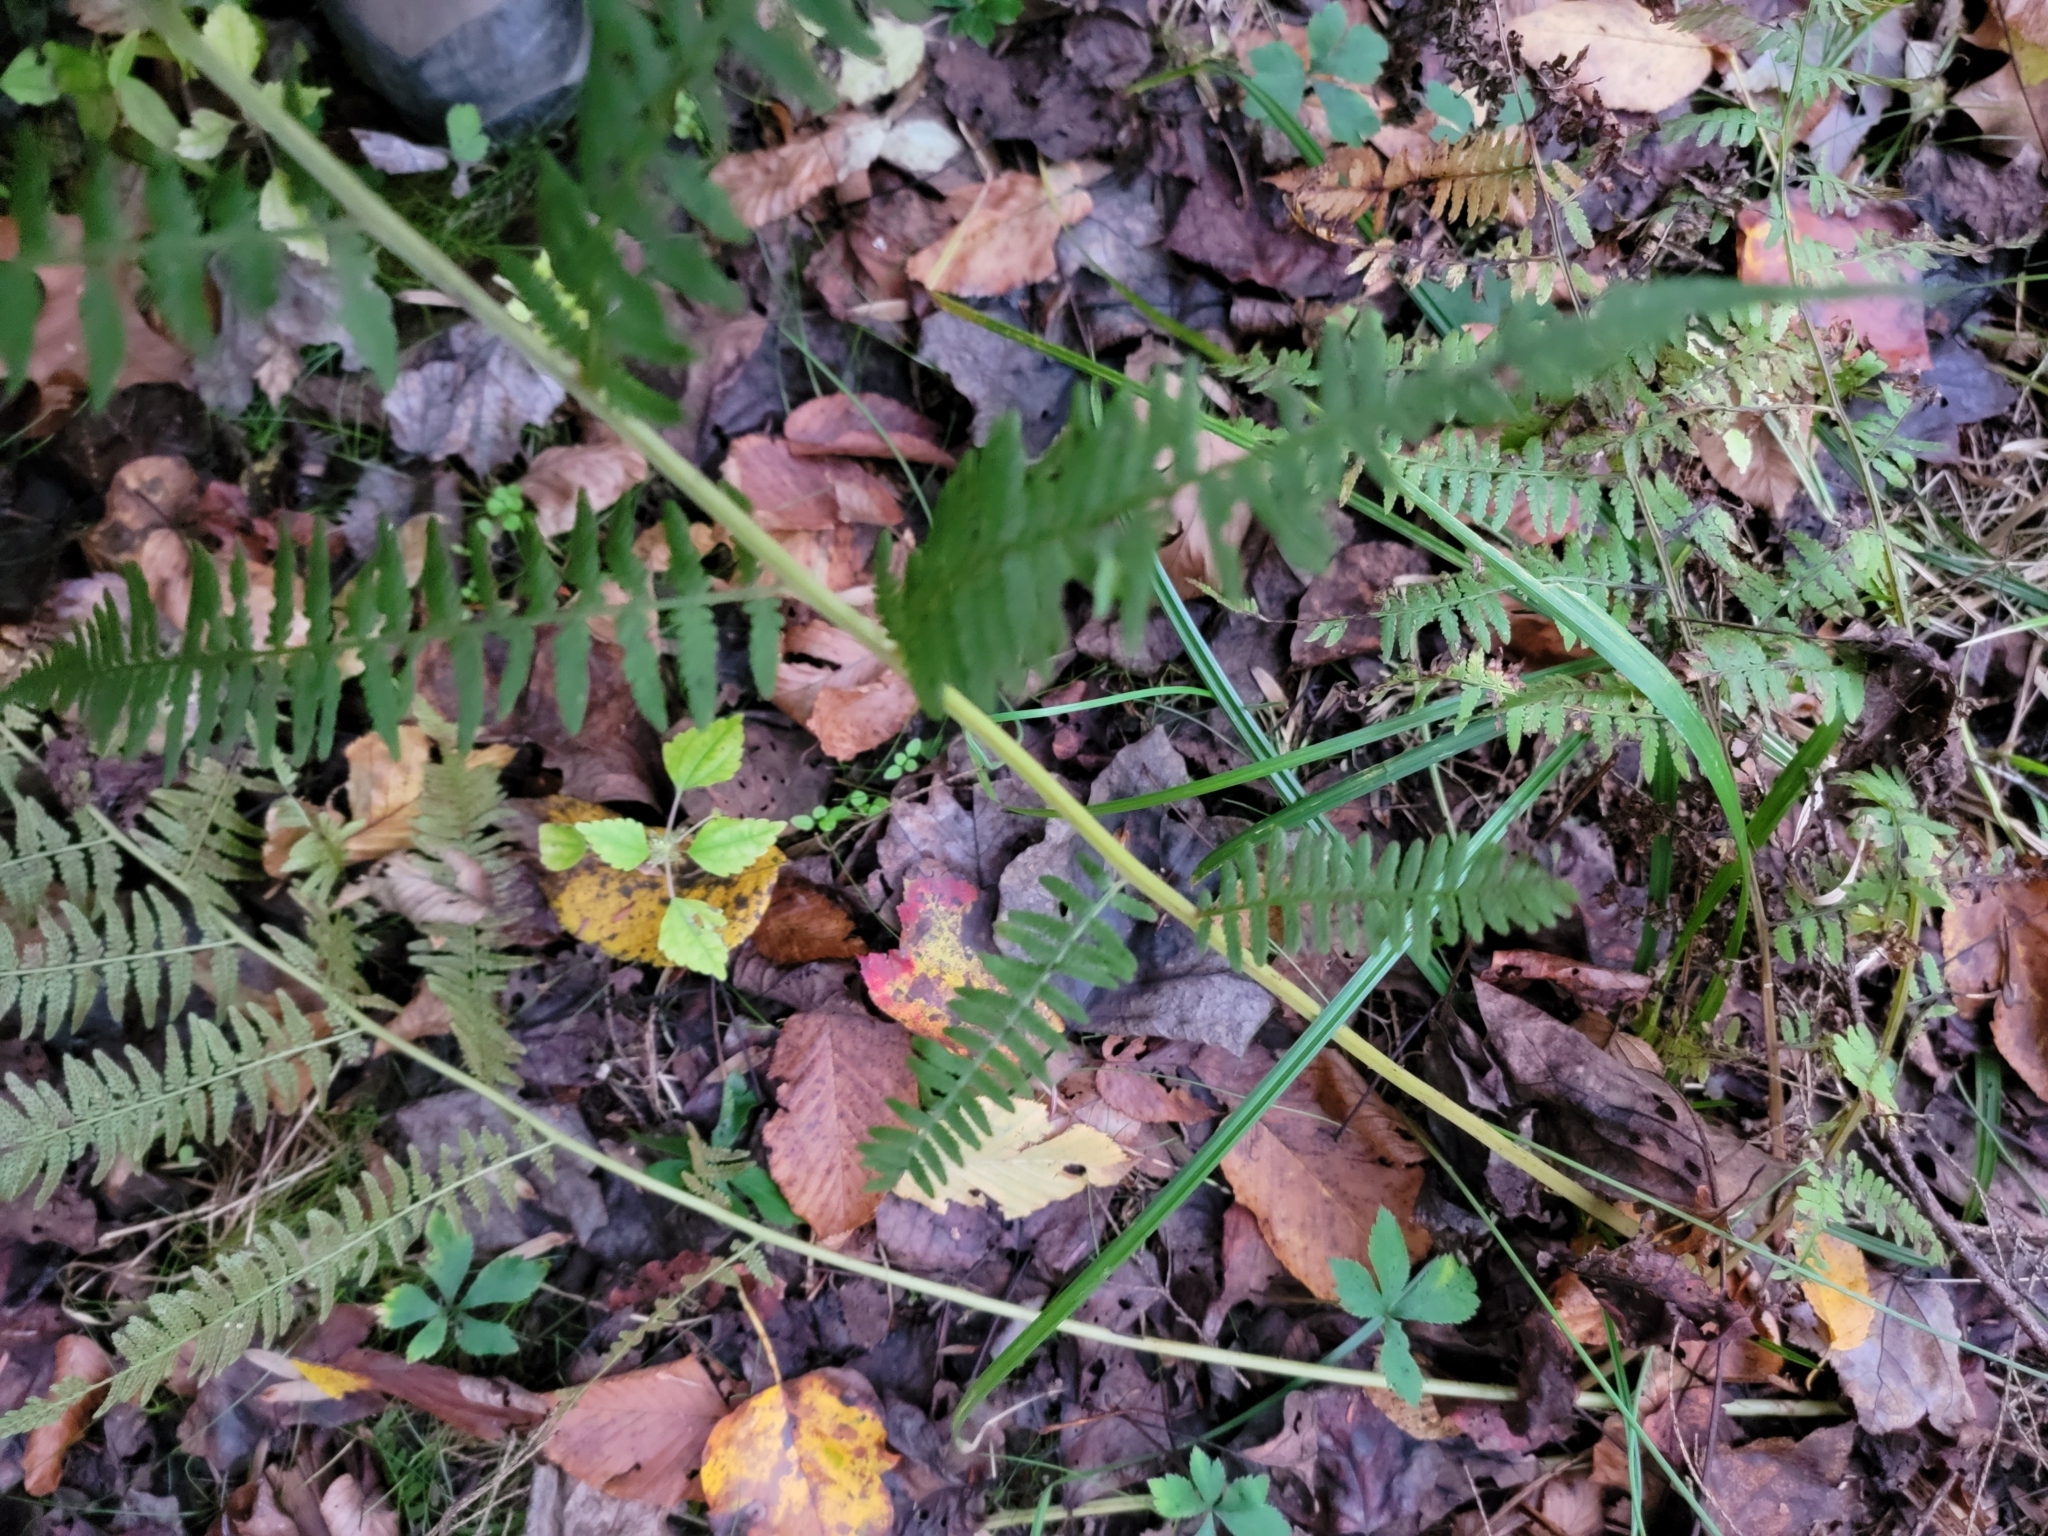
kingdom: Plantae
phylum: Tracheophyta
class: Polypodiopsida
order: Polypodiales
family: Athyriaceae
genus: Athyrium
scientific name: Athyrium angustum
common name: Northern lady fern
